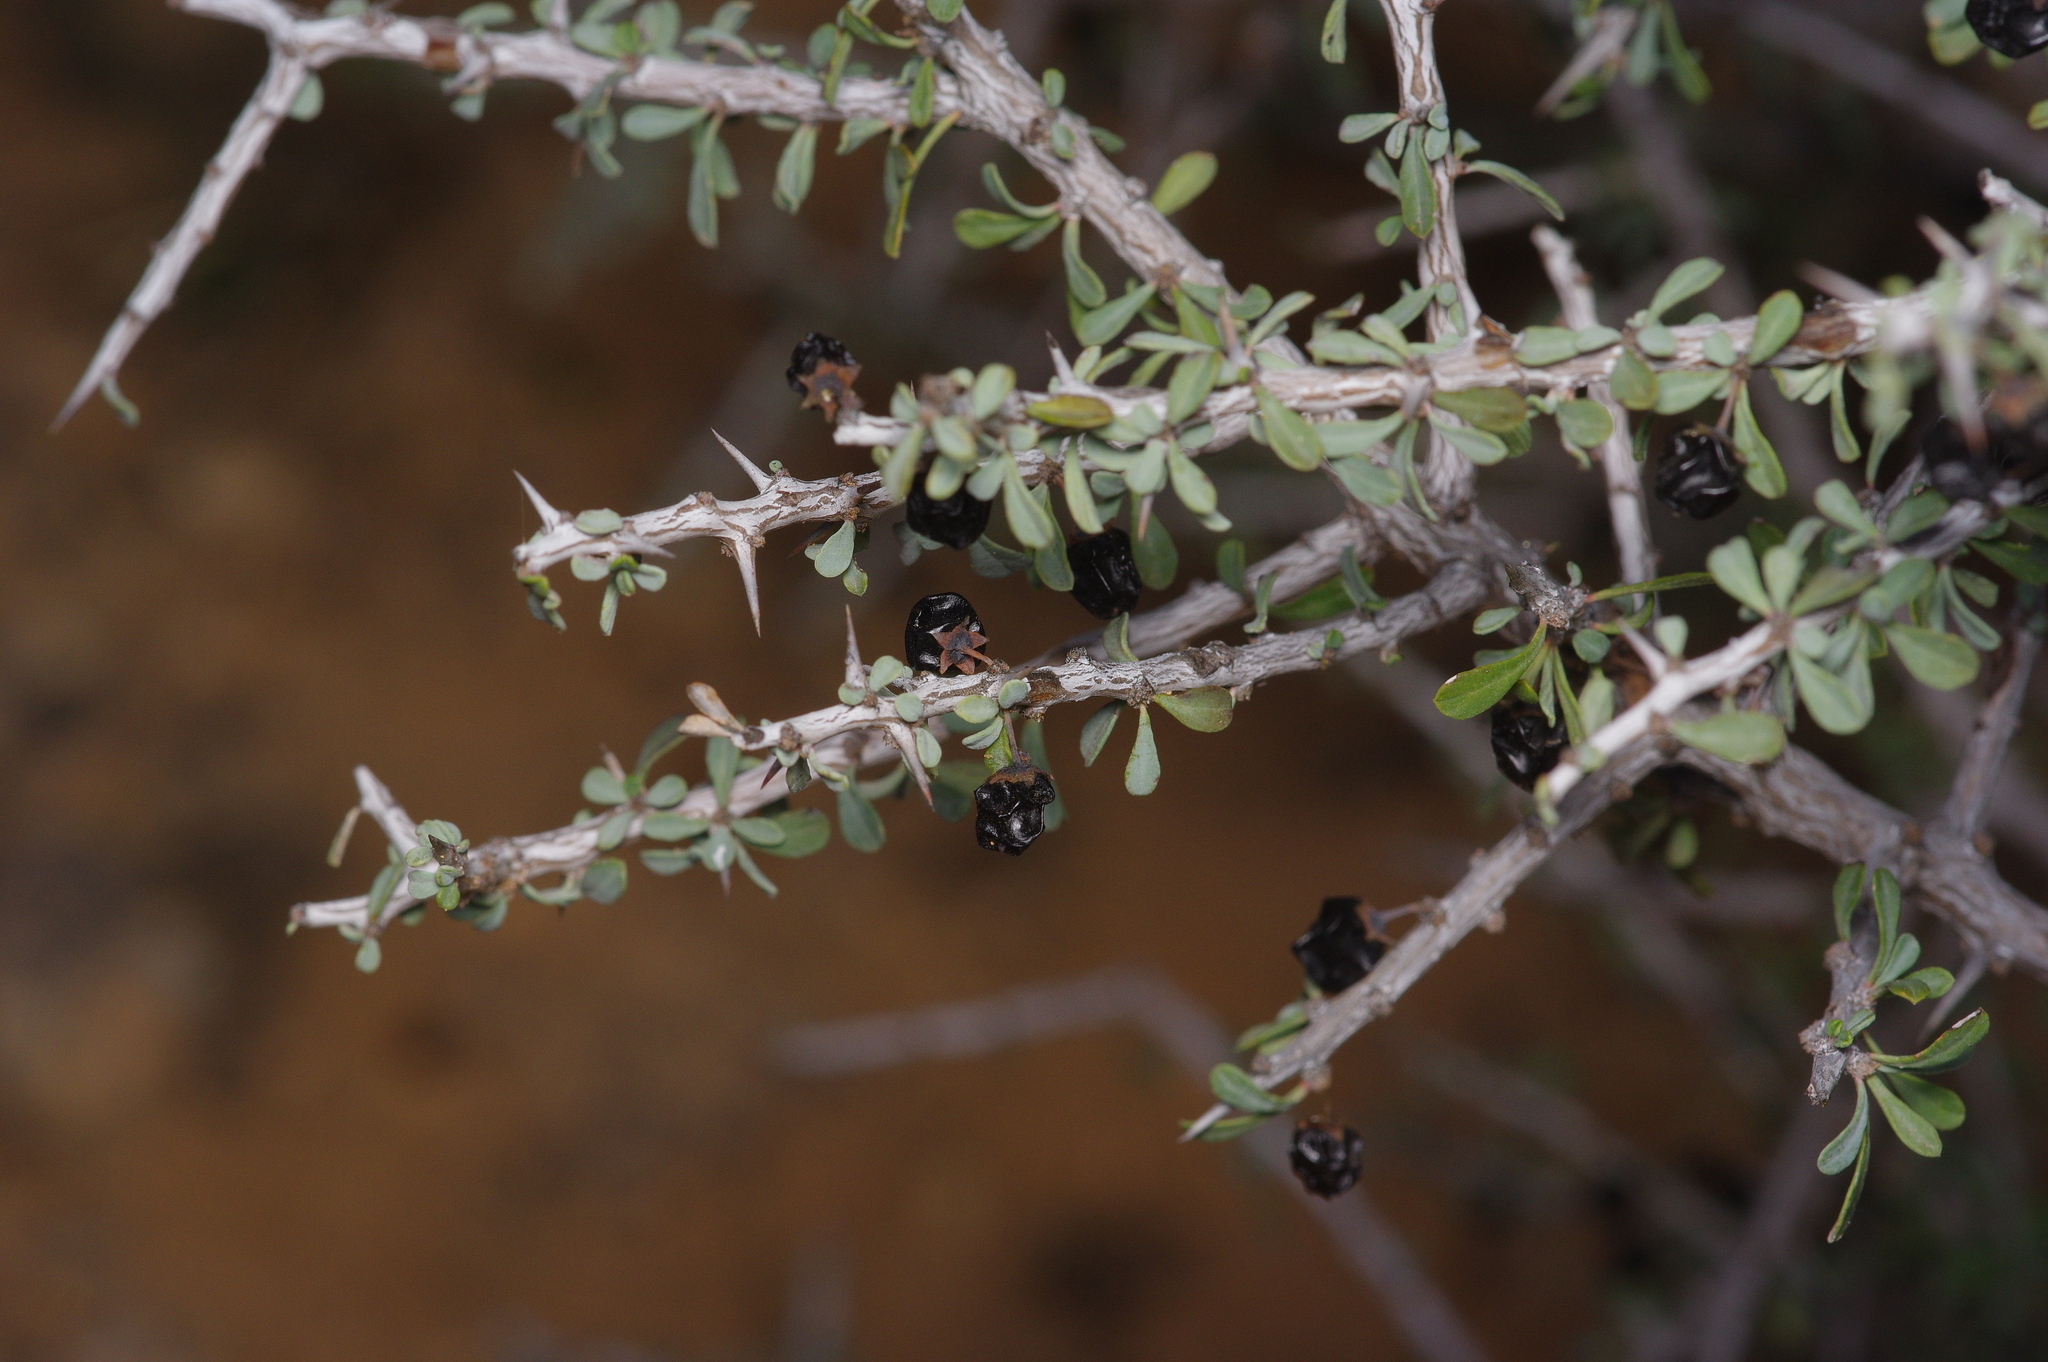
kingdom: Plantae
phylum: Tracheophyta
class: Magnoliopsida
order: Rosales
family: Rhamnaceae
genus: Condalia
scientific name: Condalia spathulata
